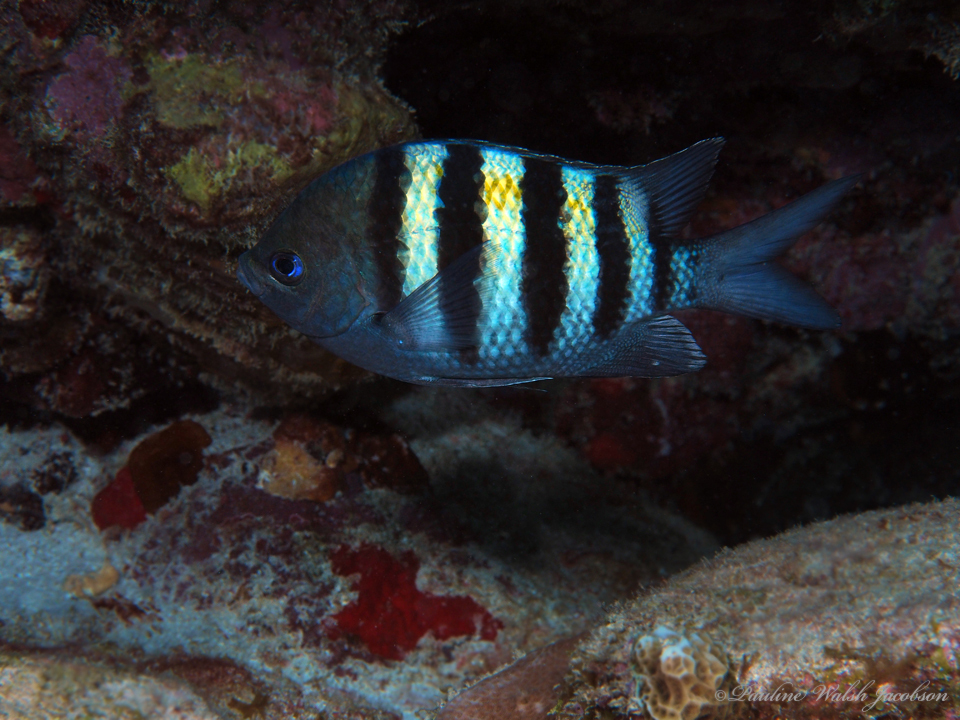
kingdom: Animalia
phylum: Chordata
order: Perciformes
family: Pomacentridae
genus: Abudefduf
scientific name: Abudefduf saxatilis
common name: Sergeant major
